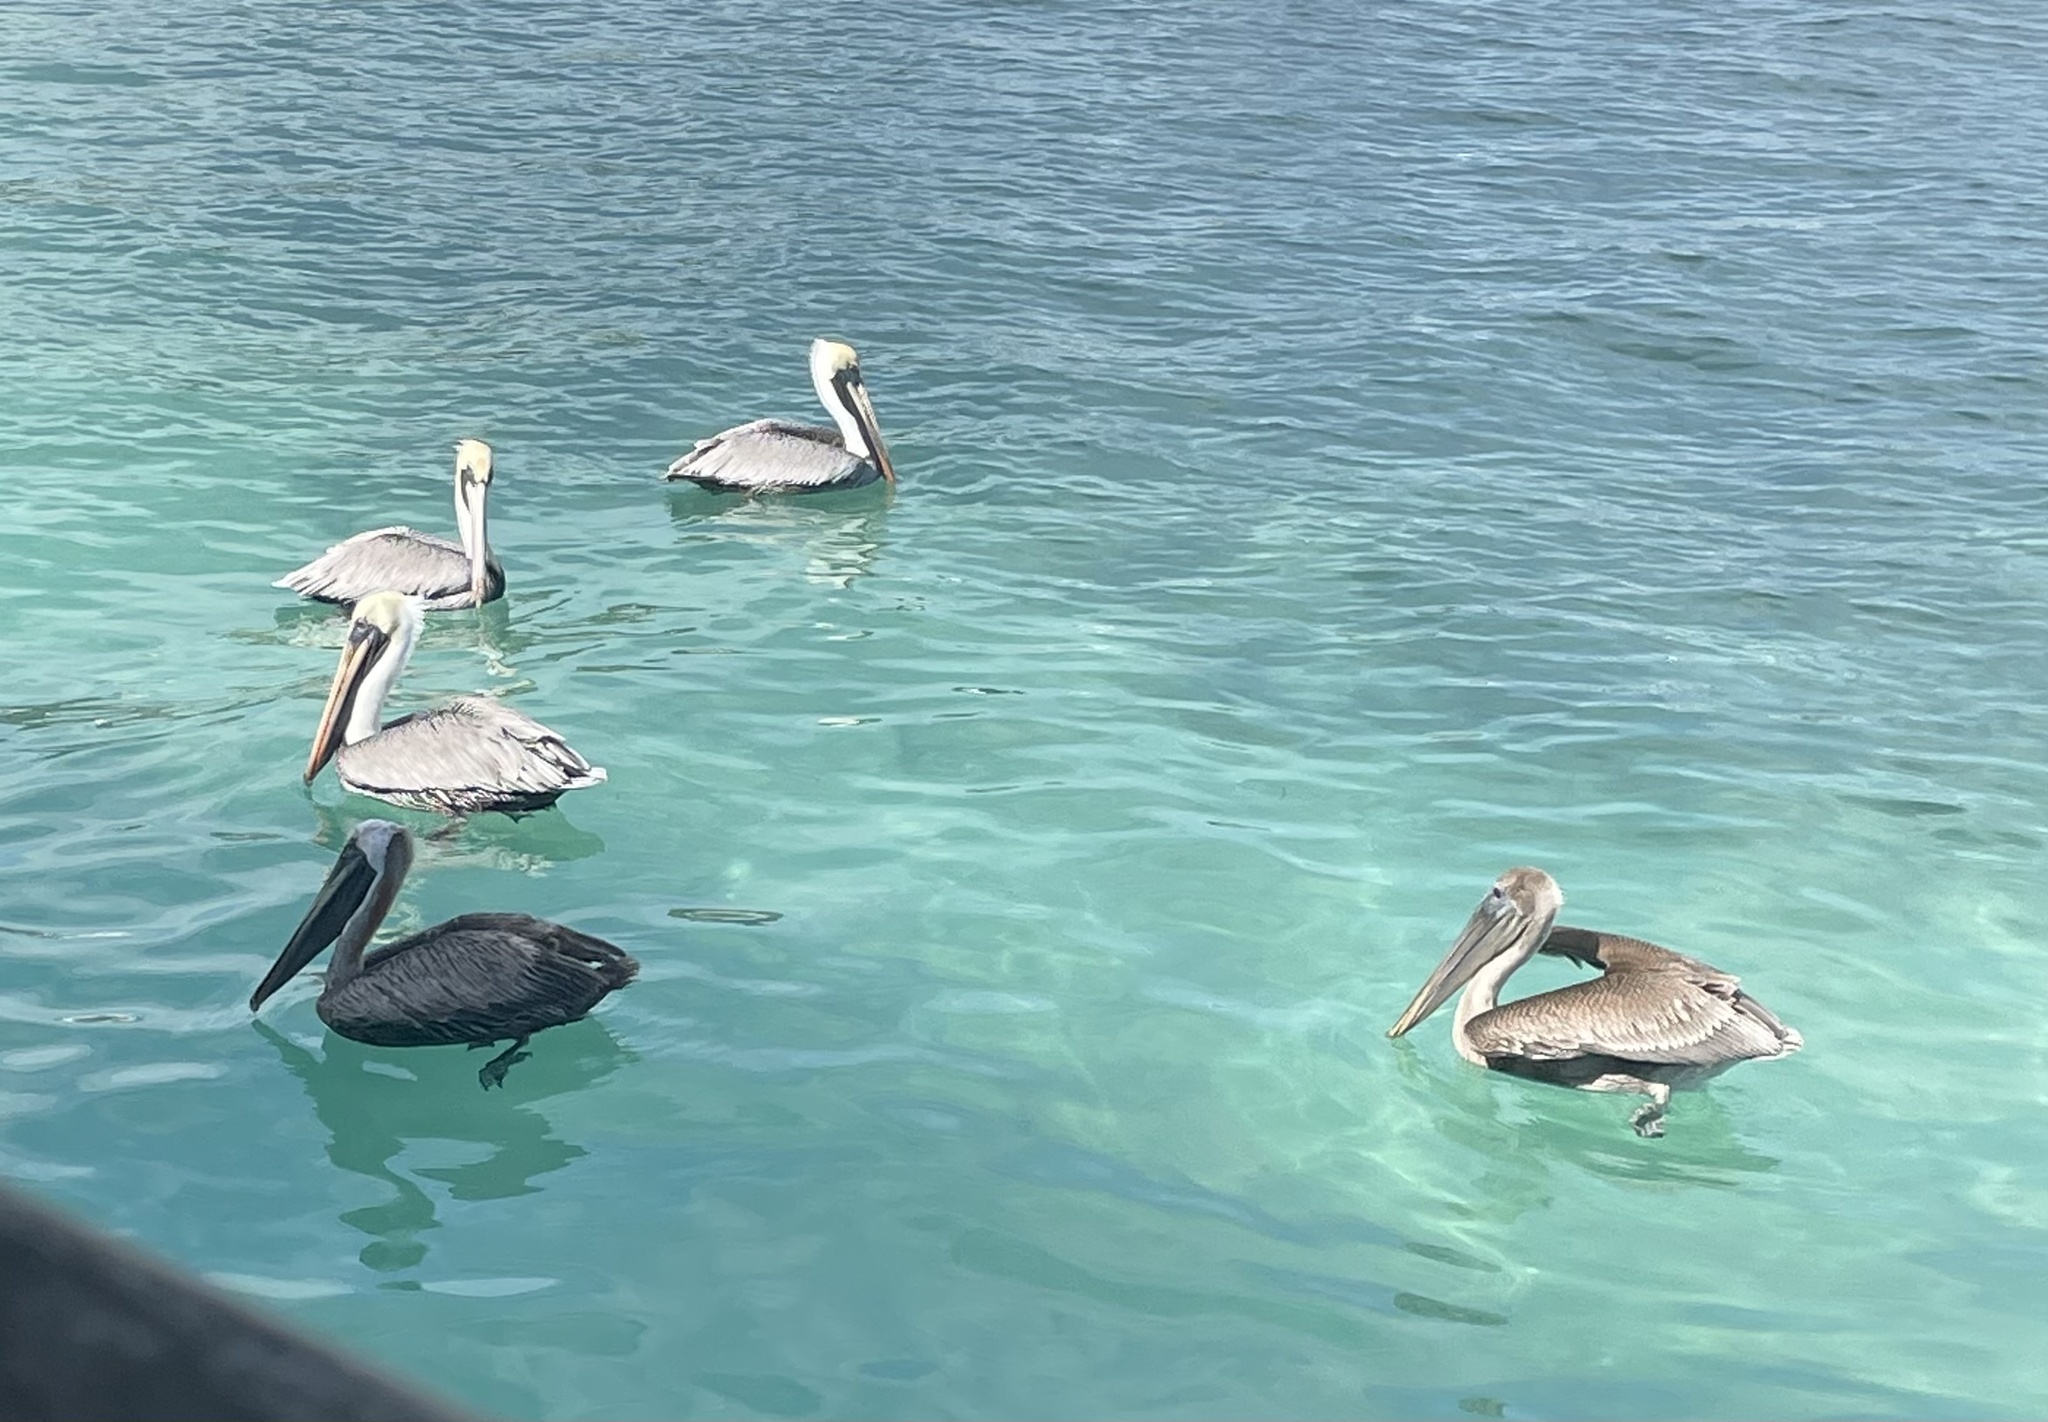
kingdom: Animalia
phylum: Chordata
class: Aves
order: Pelecaniformes
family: Pelecanidae
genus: Pelecanus
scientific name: Pelecanus occidentalis
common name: Brown pelican
